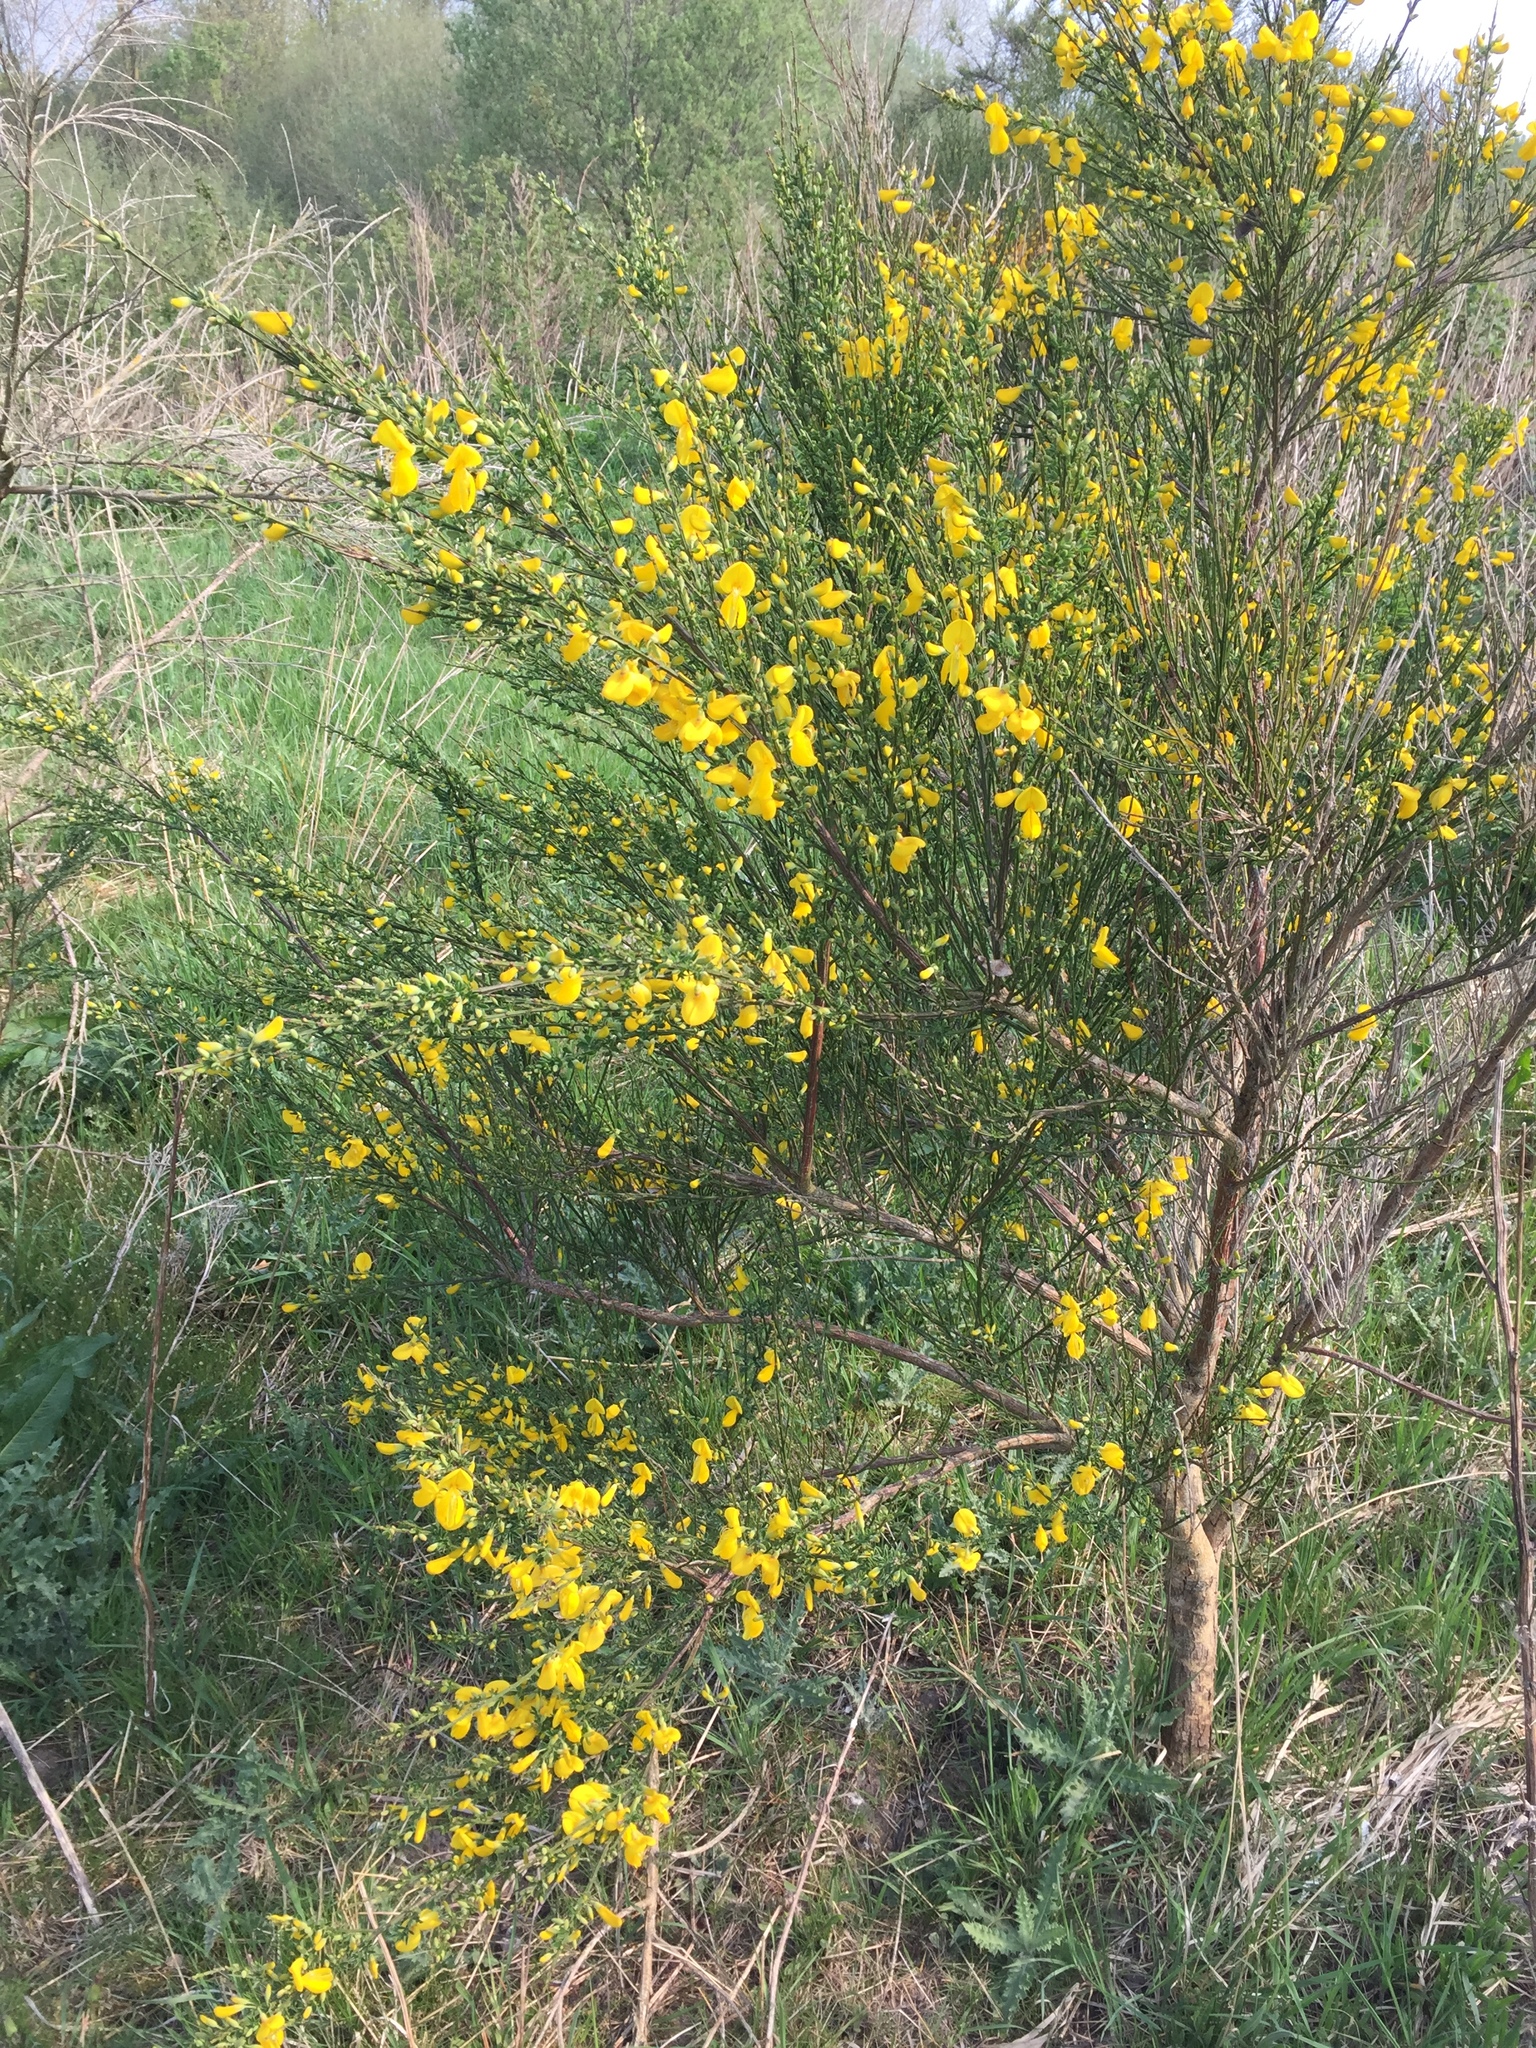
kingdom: Plantae
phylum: Tracheophyta
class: Magnoliopsida
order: Fabales
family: Fabaceae
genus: Cytisus
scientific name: Cytisus scoparius
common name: Scotch broom
